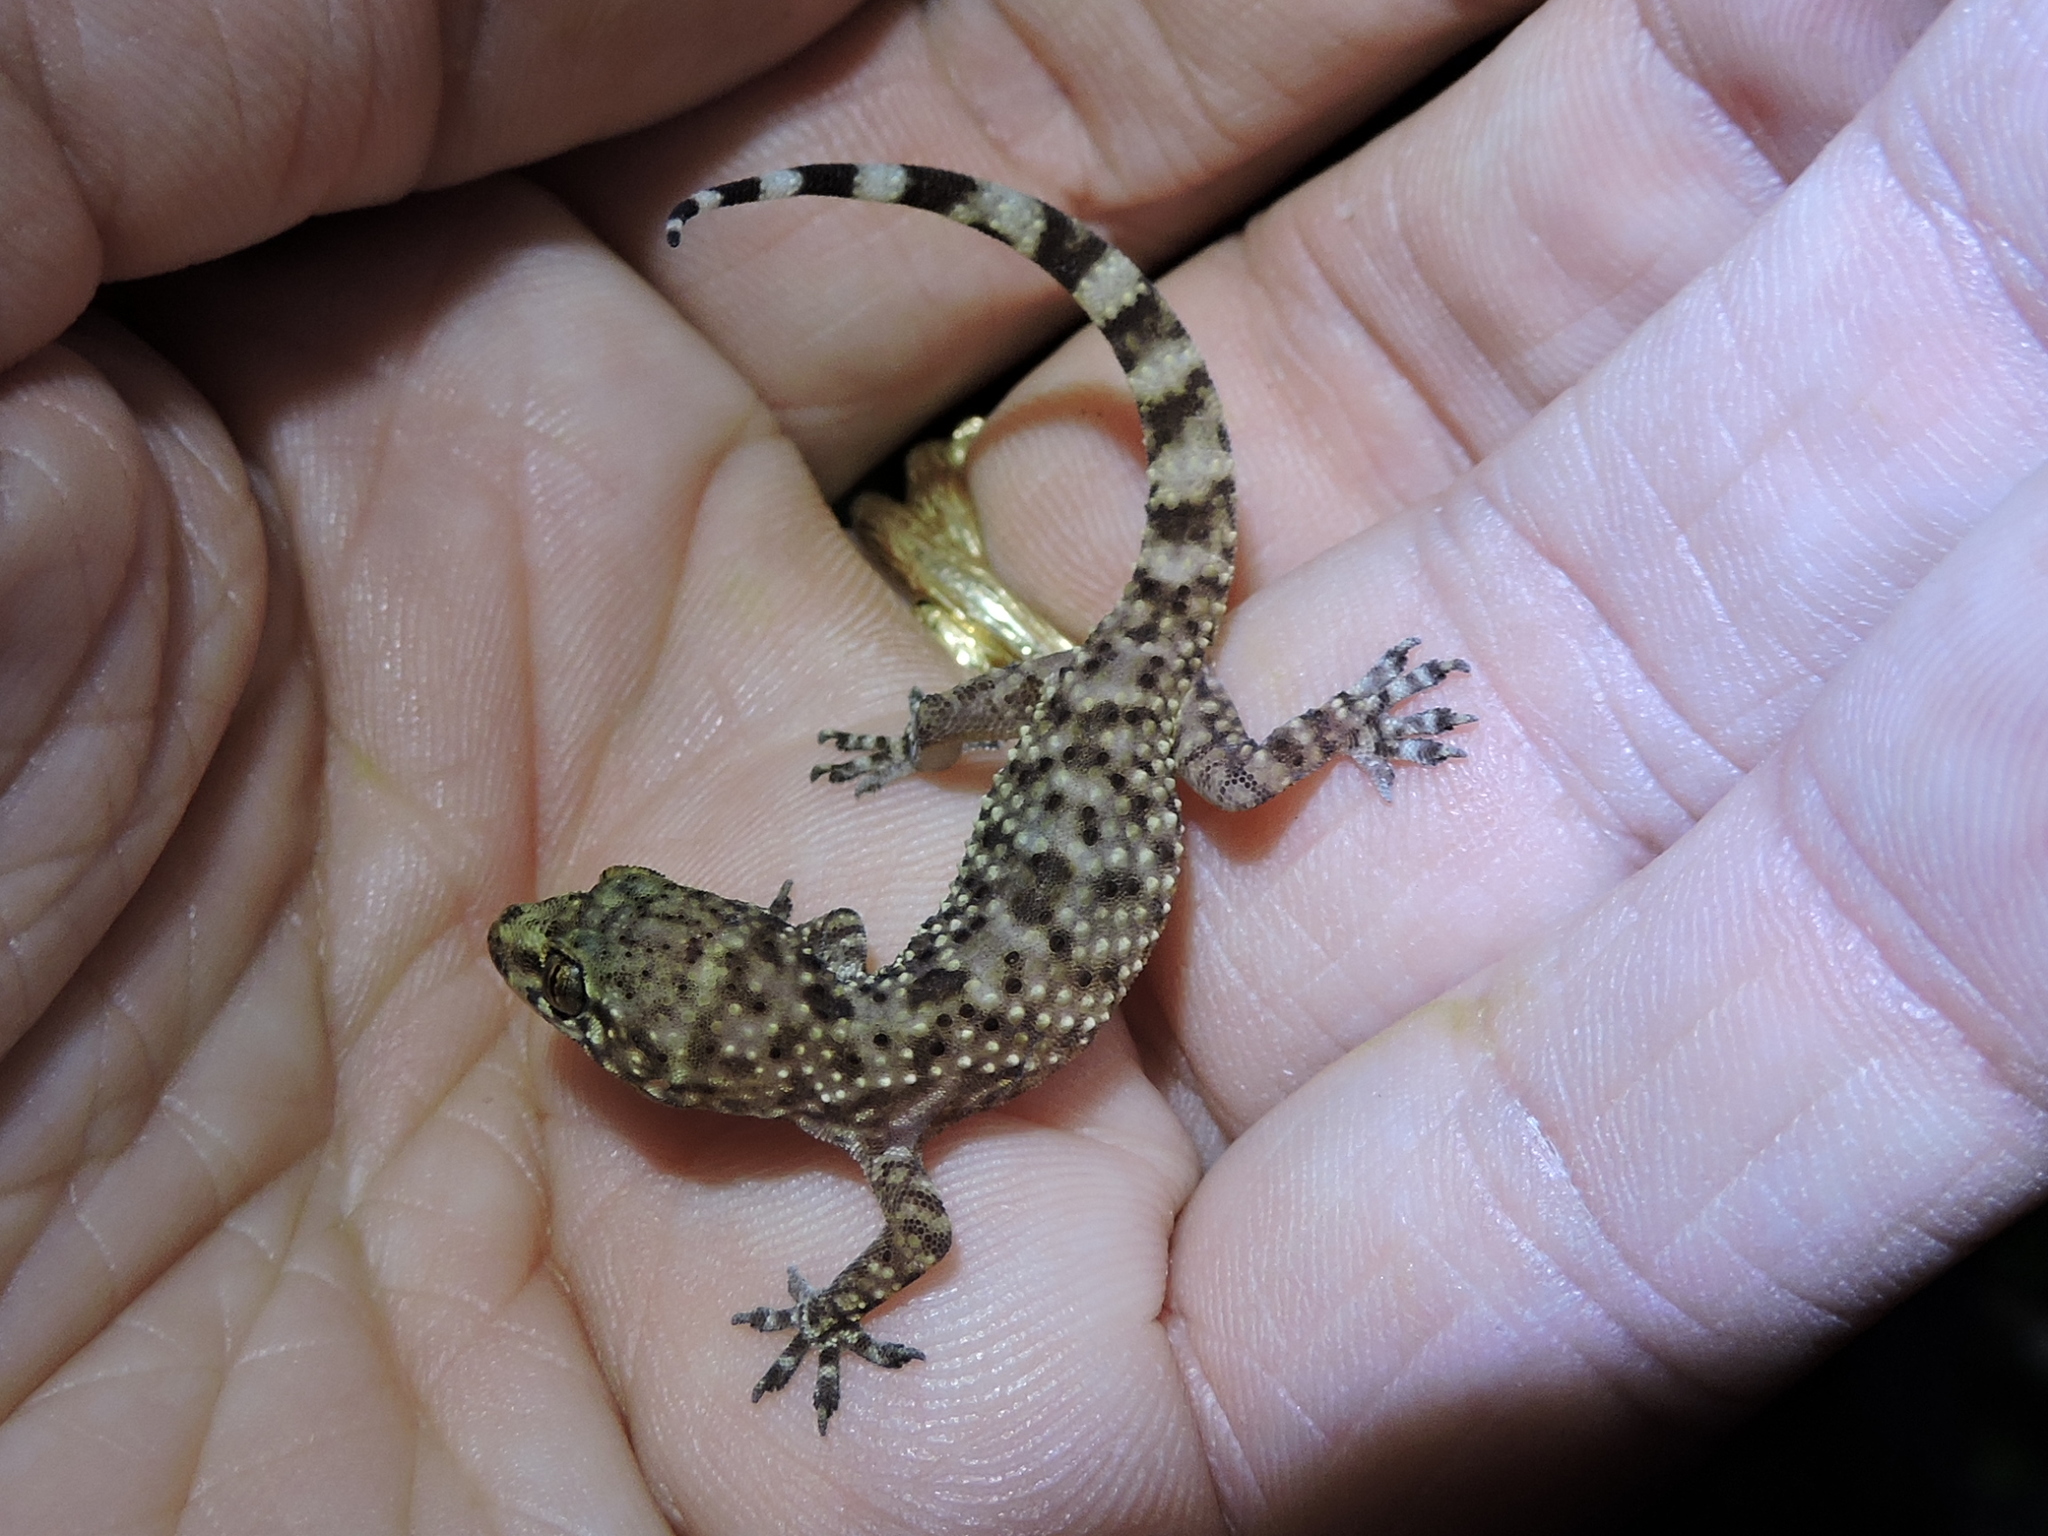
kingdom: Animalia
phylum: Chordata
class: Squamata
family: Gekkonidae
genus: Hemidactylus
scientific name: Hemidactylus turcicus
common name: Turkish gecko
